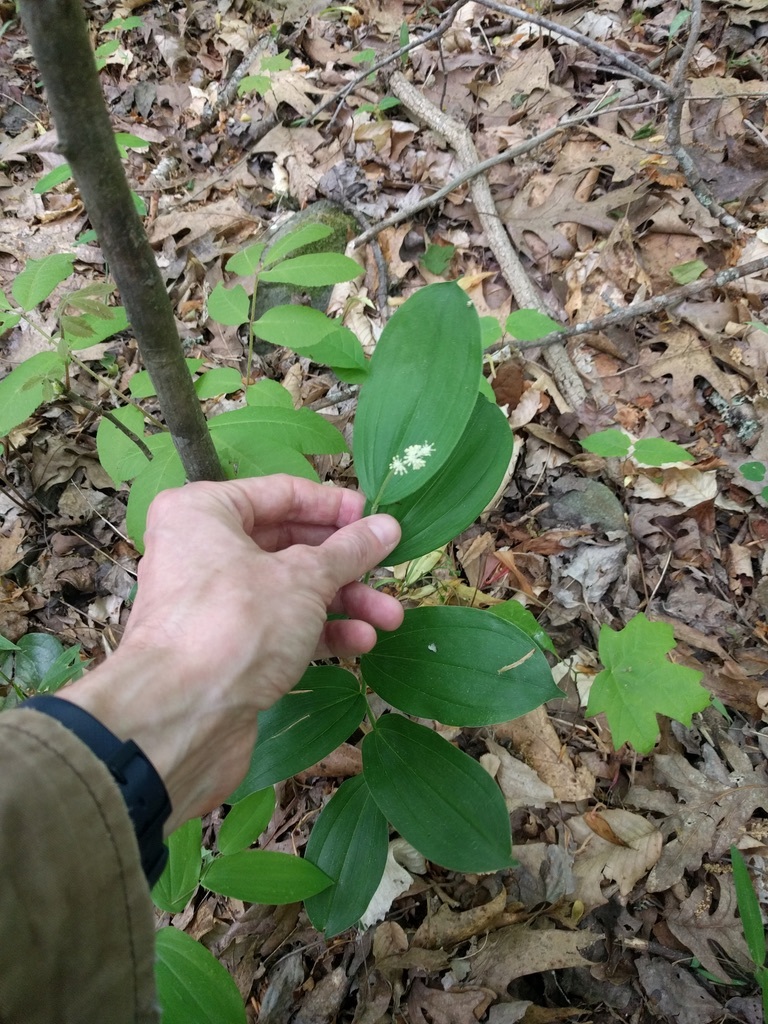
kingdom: Plantae
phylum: Tracheophyta
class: Liliopsida
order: Asparagales
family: Asparagaceae
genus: Maianthemum
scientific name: Maianthemum racemosum
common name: False spikenard
